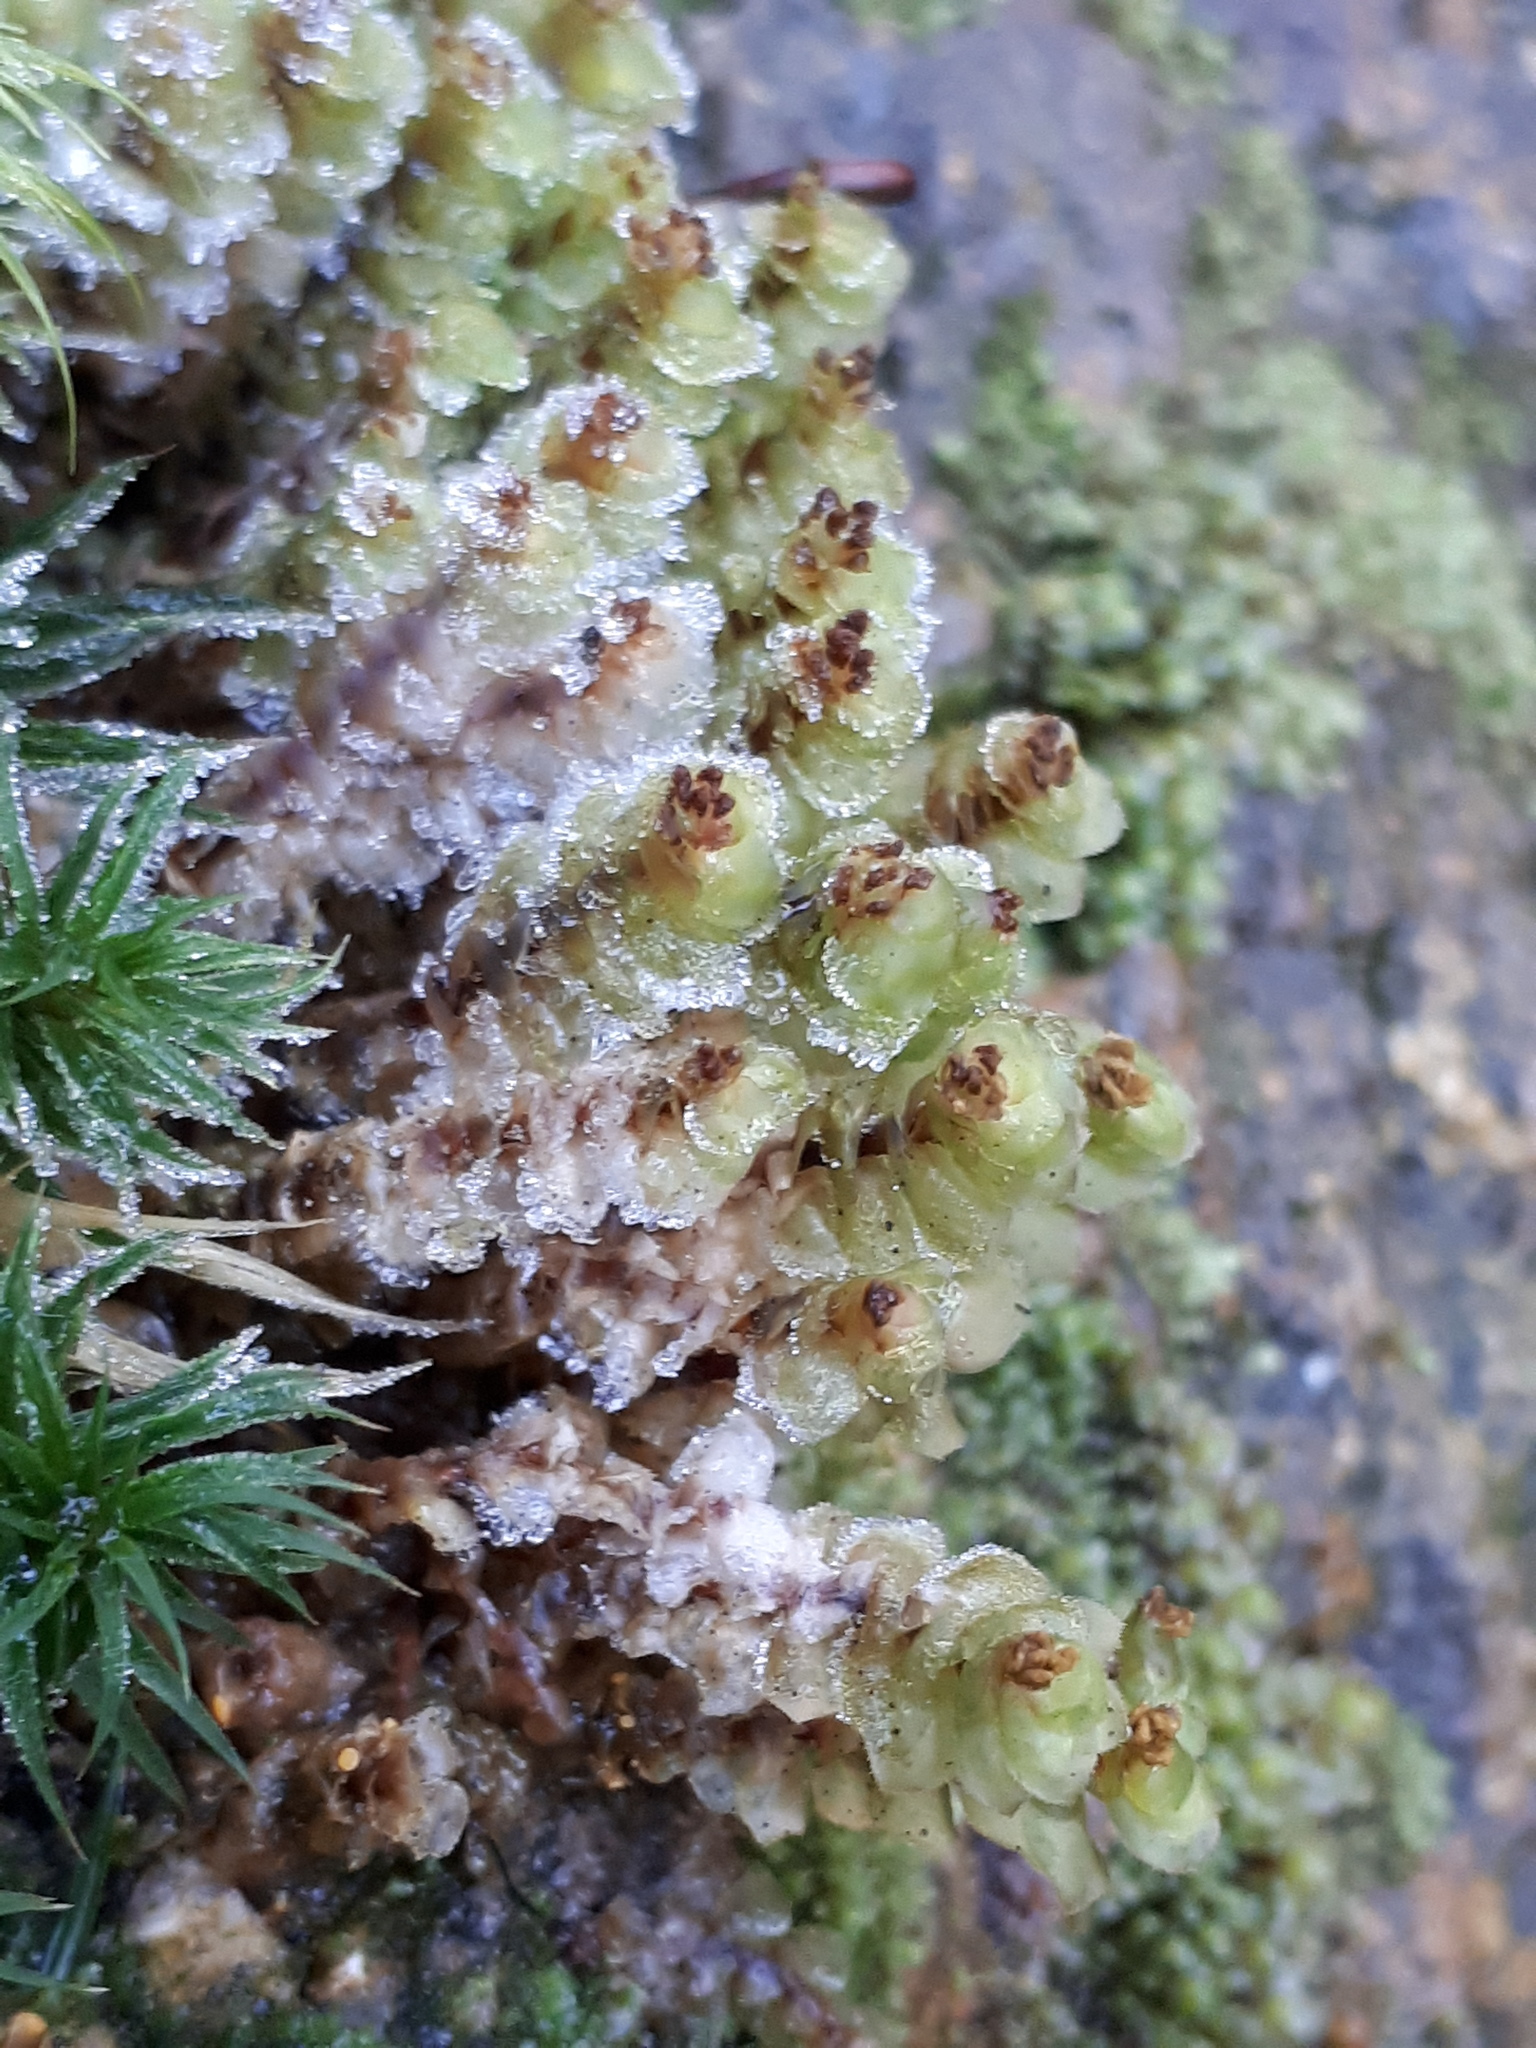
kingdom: Plantae
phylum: Marchantiophyta
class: Jungermanniopsida
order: Jungermanniales
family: Scapaniaceae
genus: Scapania
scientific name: Scapania nemorea
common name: Grove earwort
